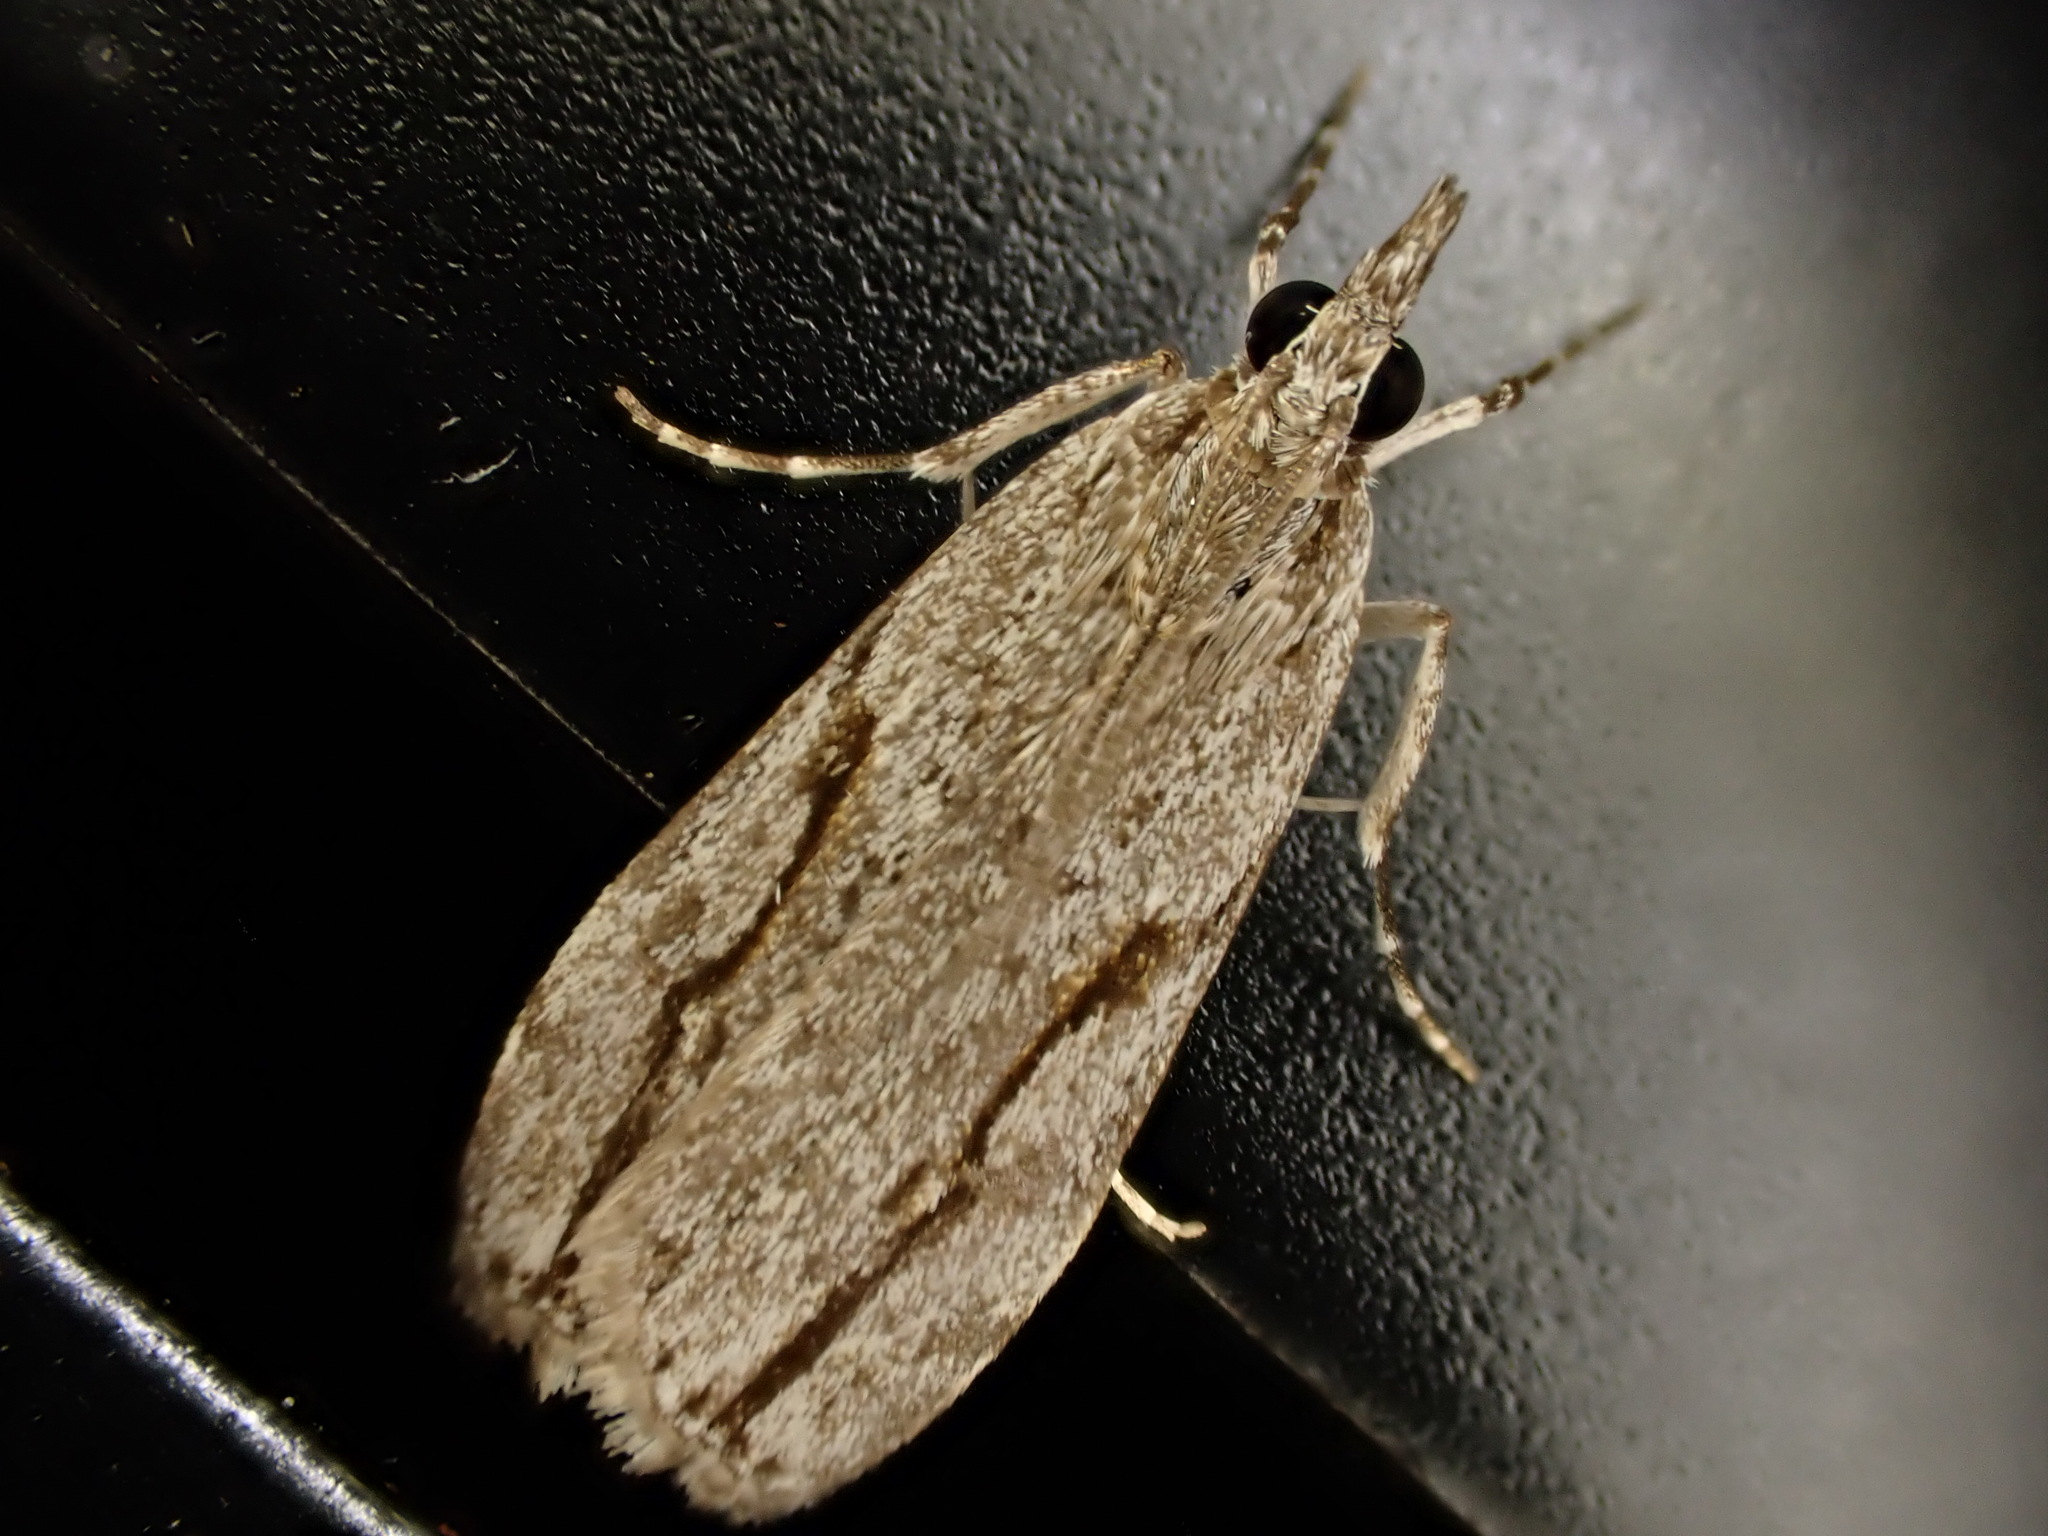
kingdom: Animalia
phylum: Arthropoda
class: Insecta
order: Lepidoptera
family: Crambidae
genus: Eudonia
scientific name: Eudonia bisinualis
